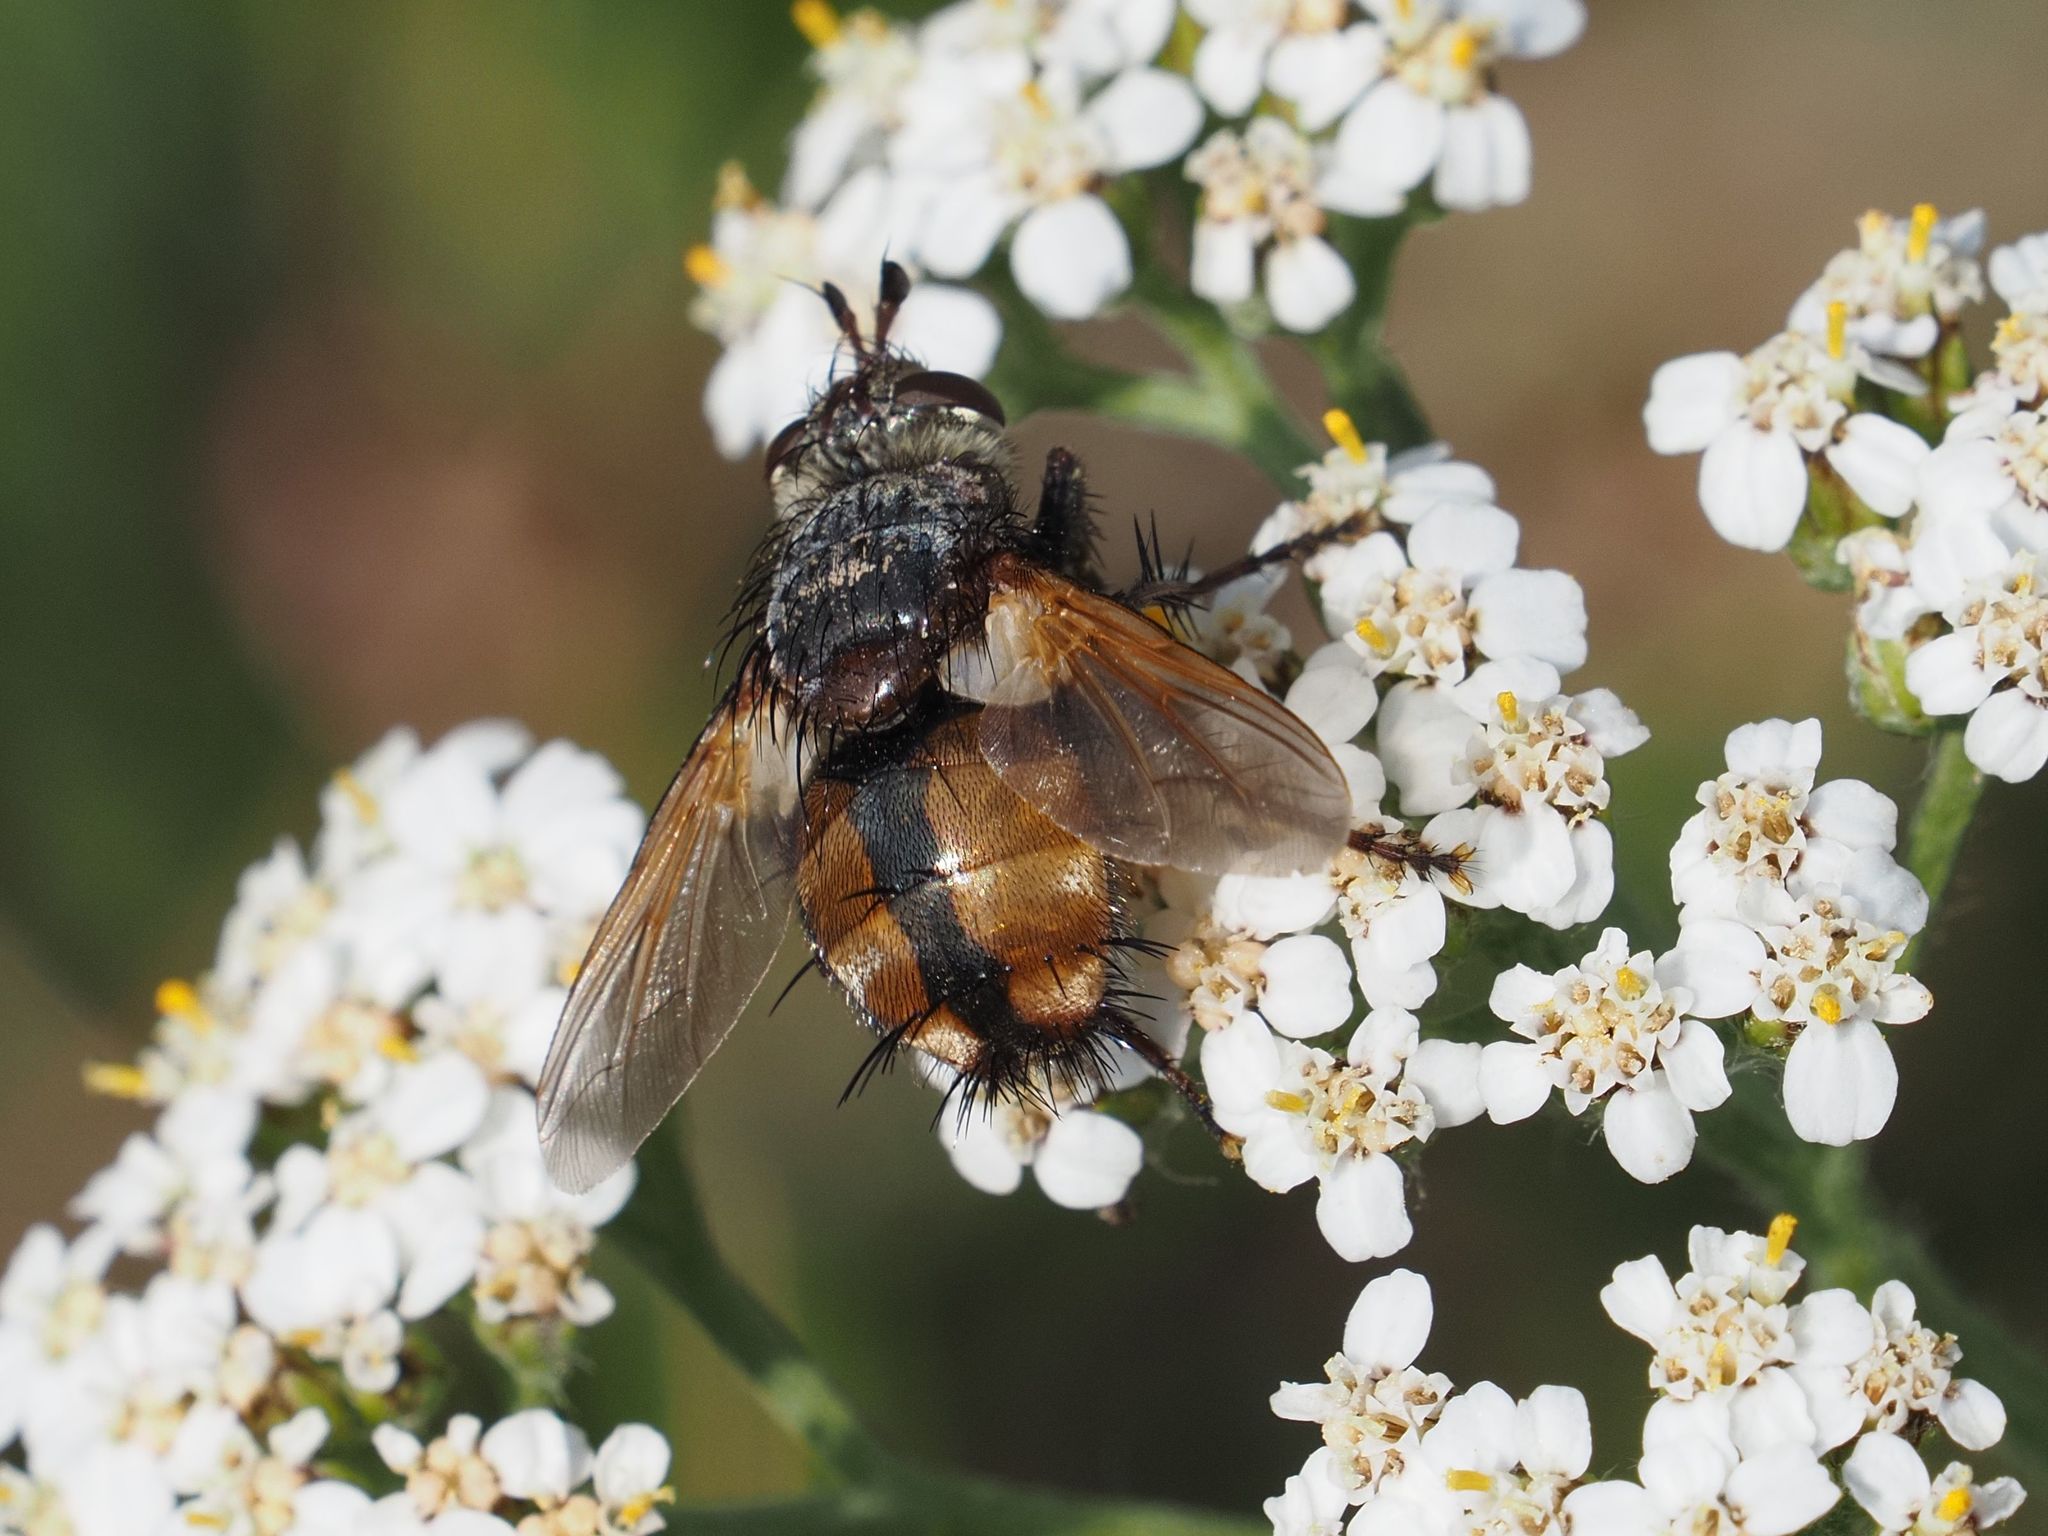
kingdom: Animalia
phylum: Arthropoda
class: Insecta
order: Diptera
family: Tachinidae
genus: Tachina
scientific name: Tachina fera
